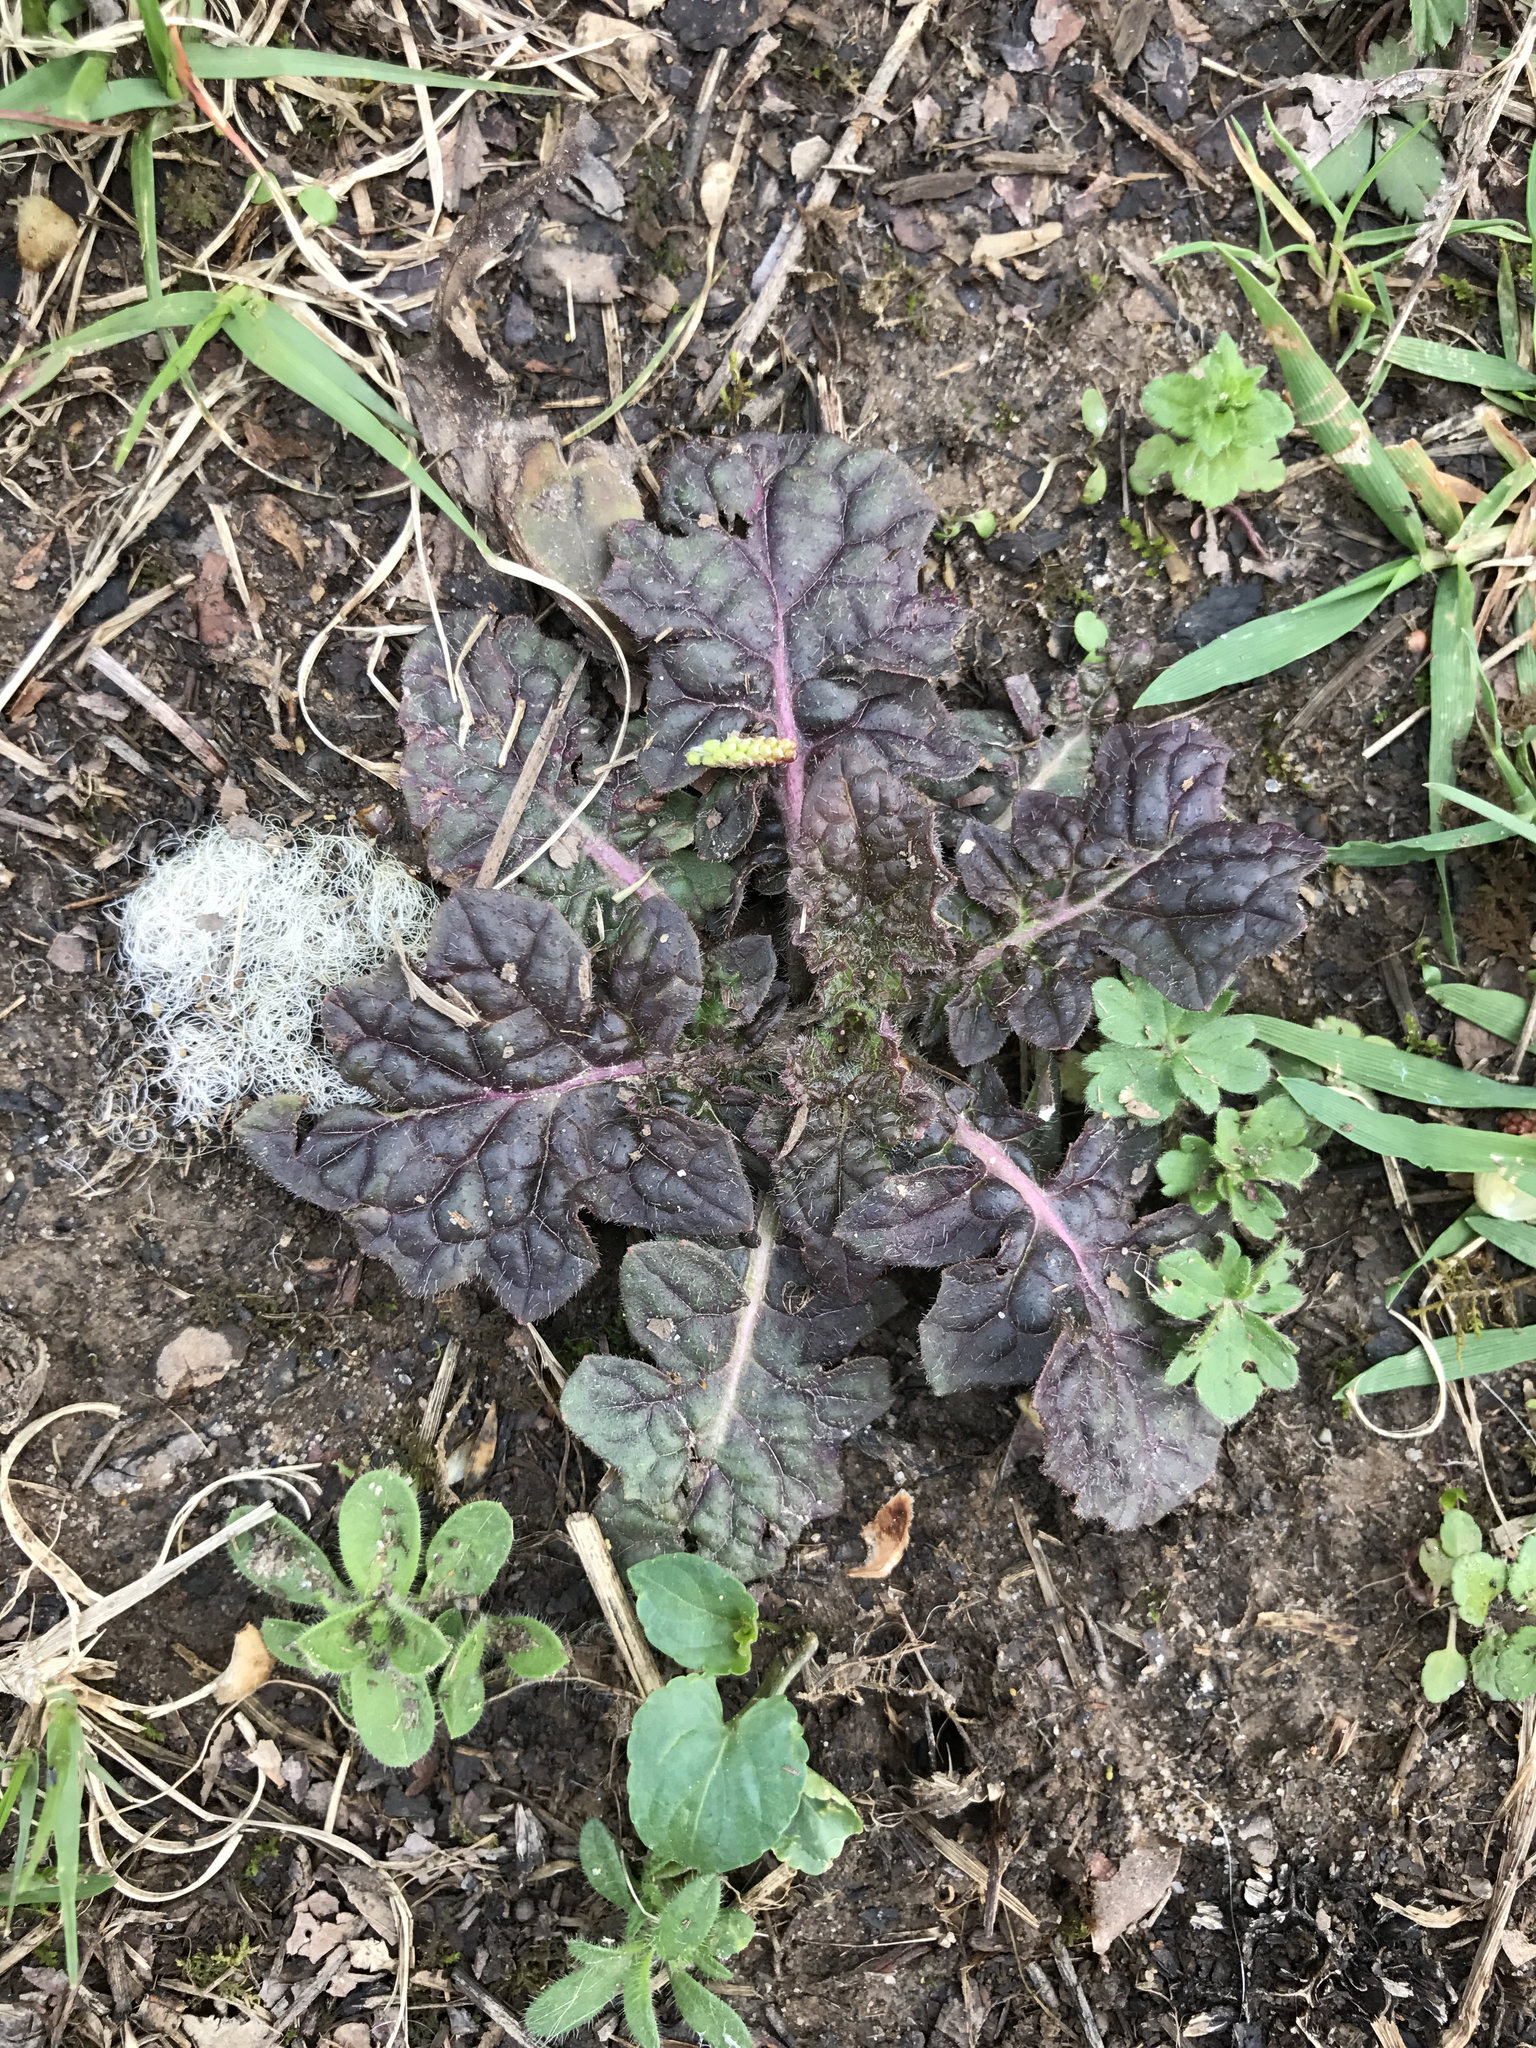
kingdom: Plantae
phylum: Tracheophyta
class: Magnoliopsida
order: Lamiales
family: Lamiaceae
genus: Salvia
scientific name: Salvia lyrata
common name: Cancerweed
